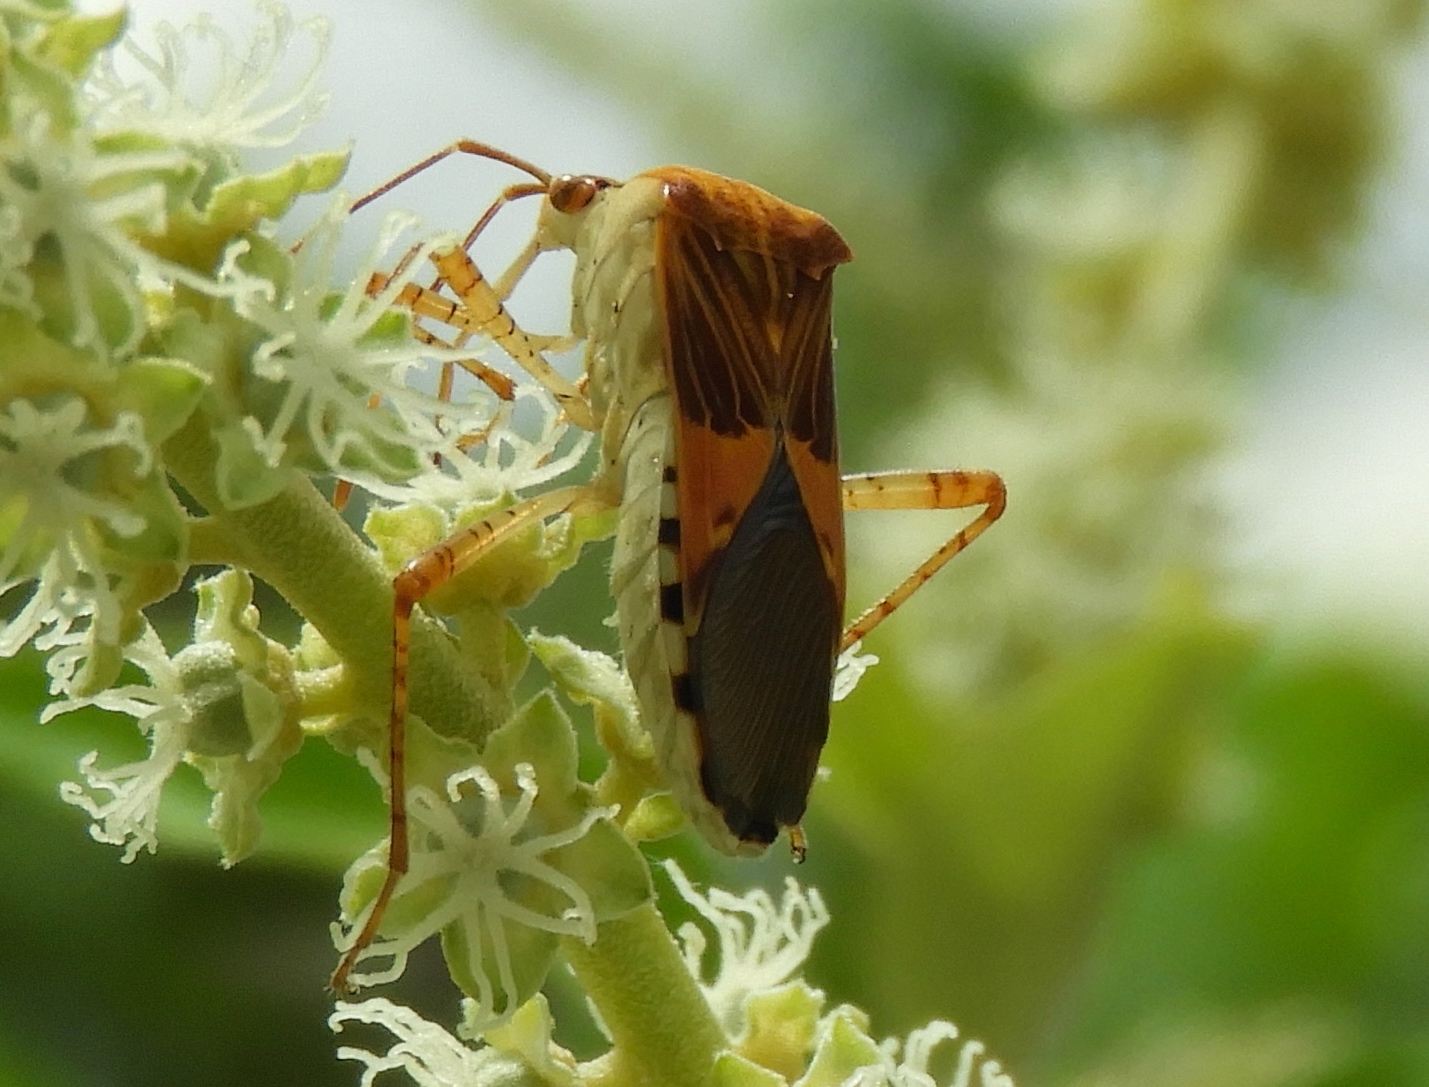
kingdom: Animalia
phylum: Arthropoda
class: Insecta
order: Hemiptera
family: Coreidae
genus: Hypselonotus
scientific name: Hypselonotus punctiventris
